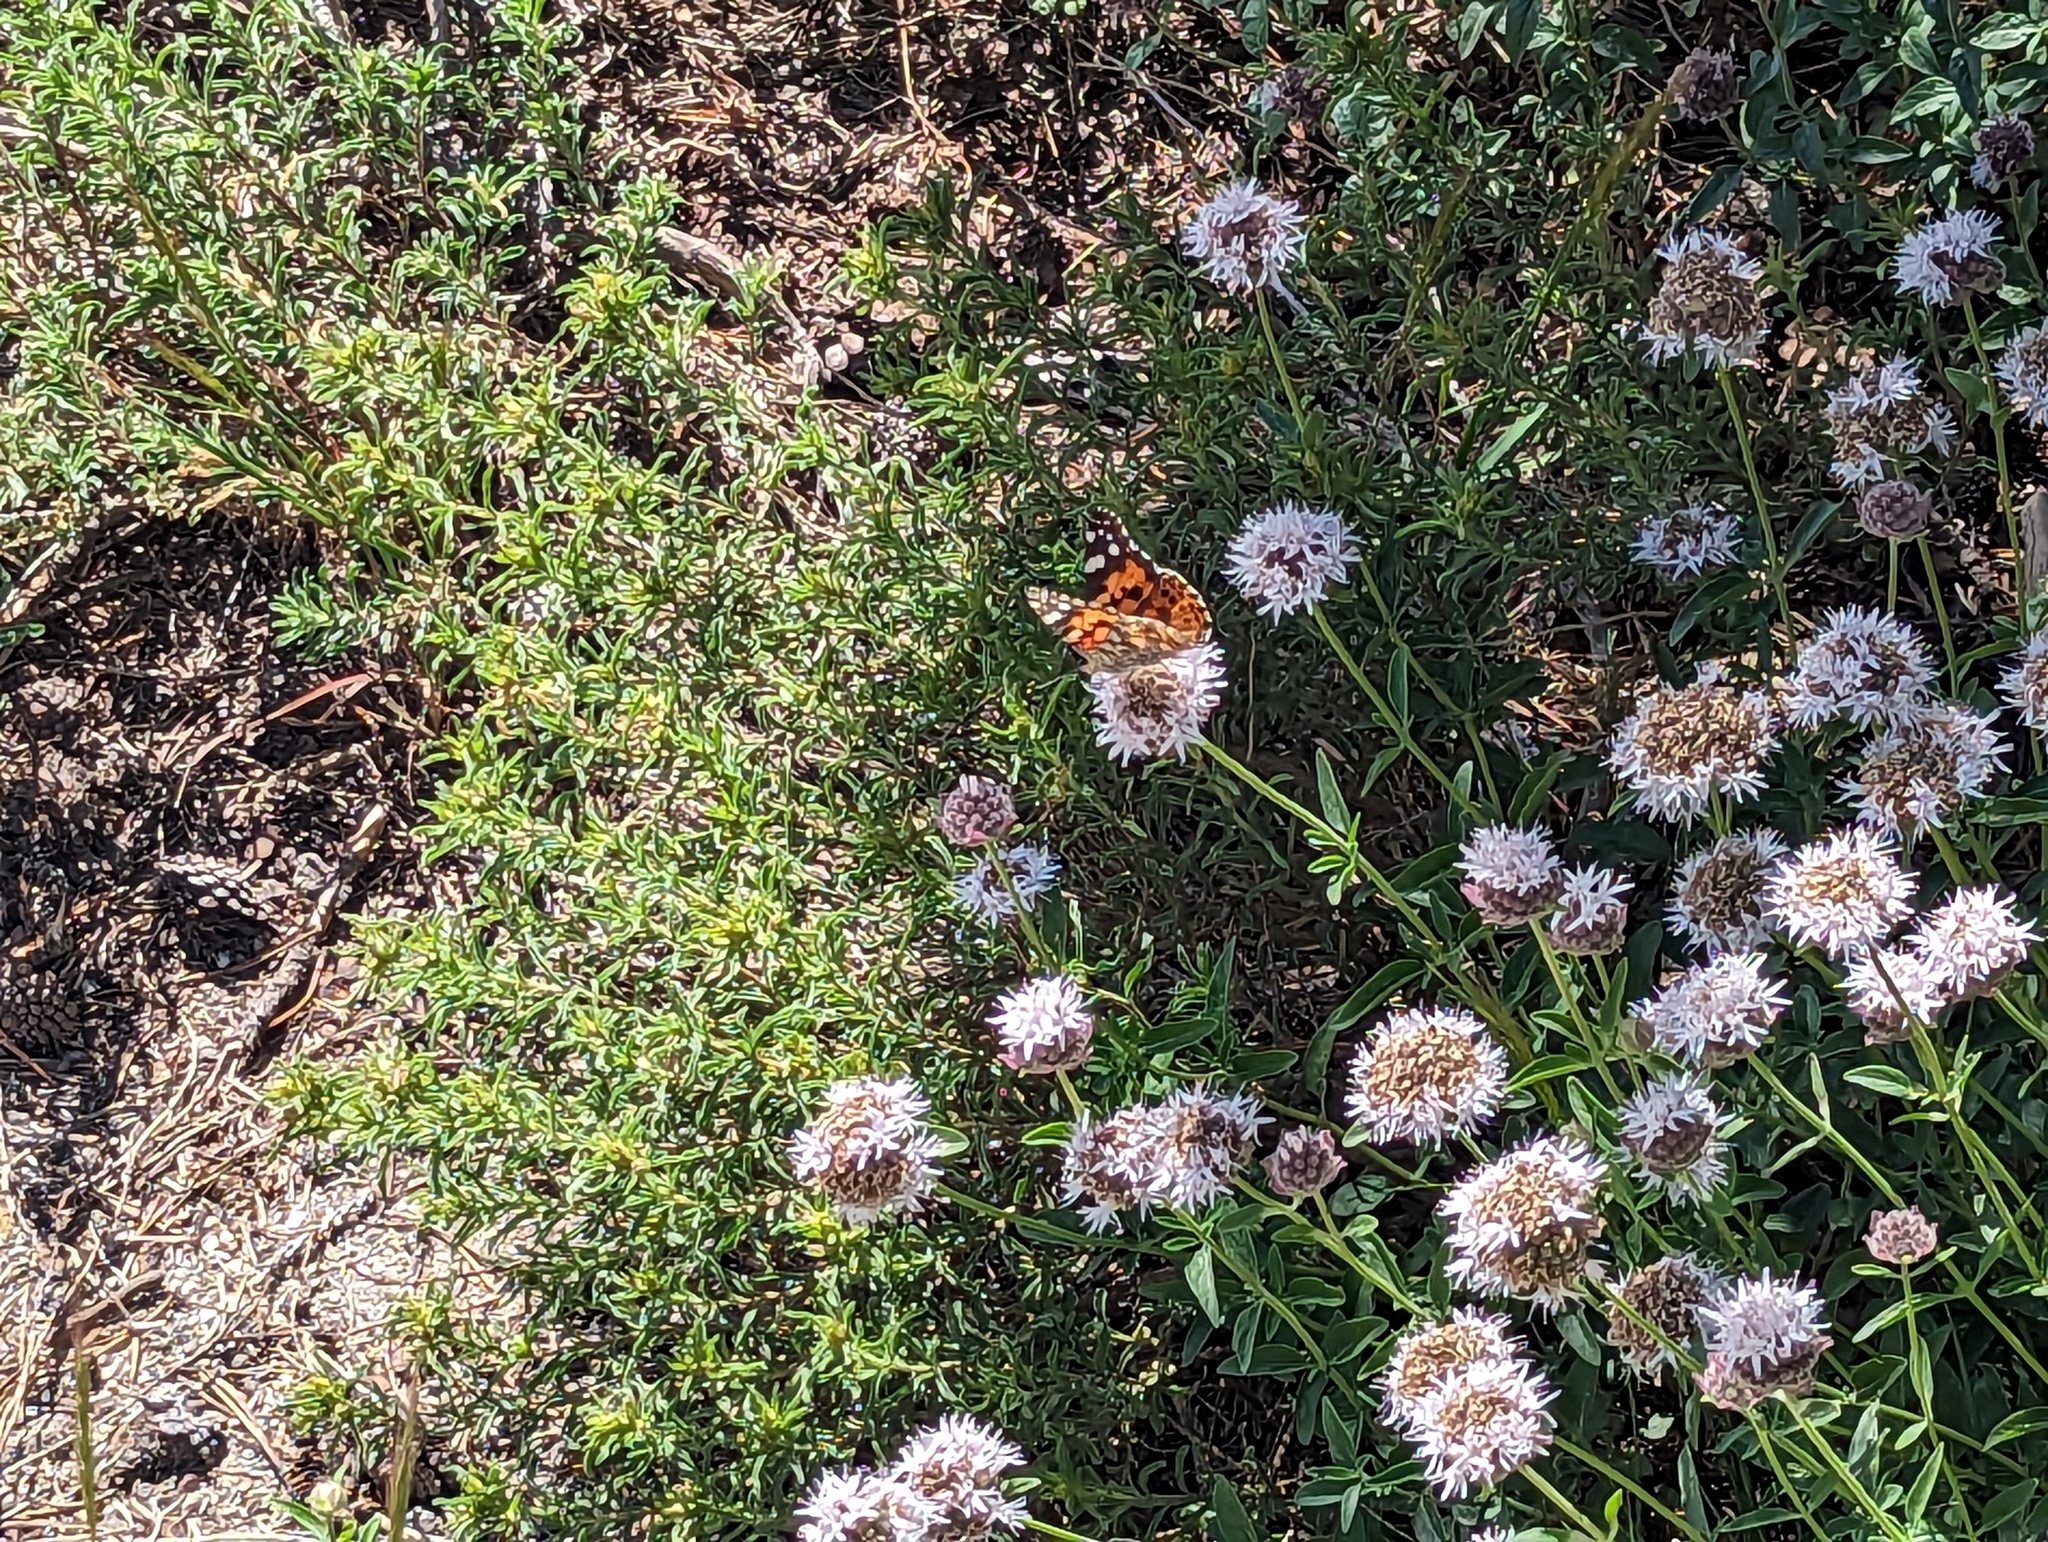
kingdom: Animalia
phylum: Arthropoda
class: Insecta
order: Lepidoptera
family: Nymphalidae
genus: Vanessa
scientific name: Vanessa cardui
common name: Painted lady
